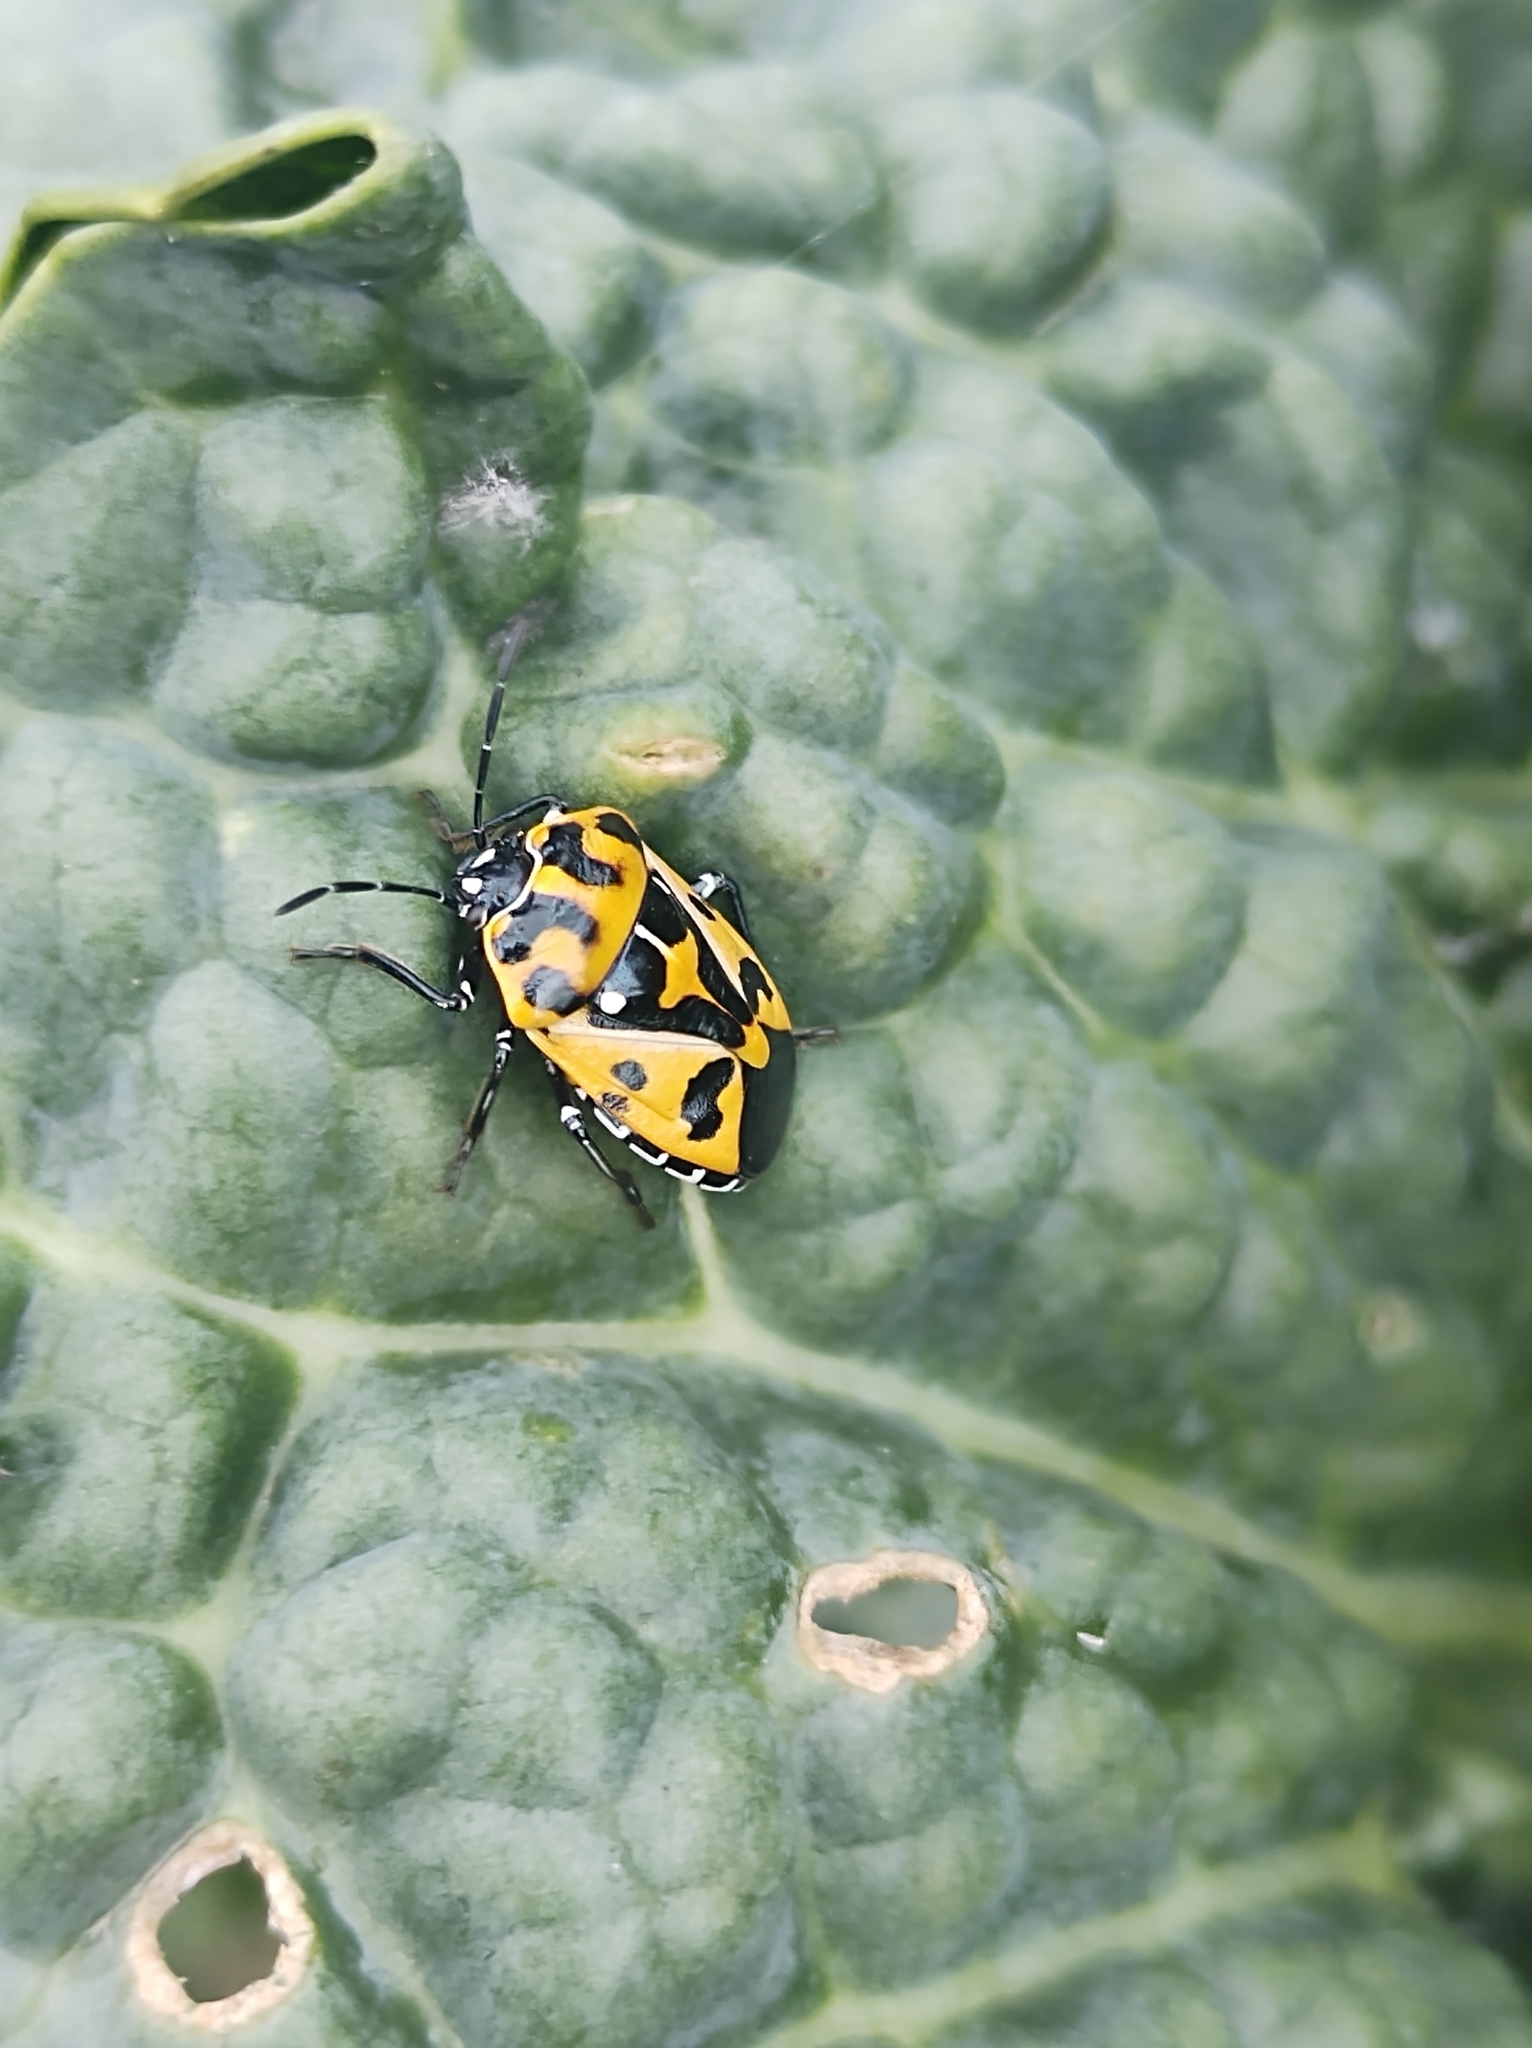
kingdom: Animalia
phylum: Arthropoda
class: Insecta
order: Hemiptera
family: Pentatomidae
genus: Murgantia
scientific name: Murgantia histrionica
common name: Harlequin bug
